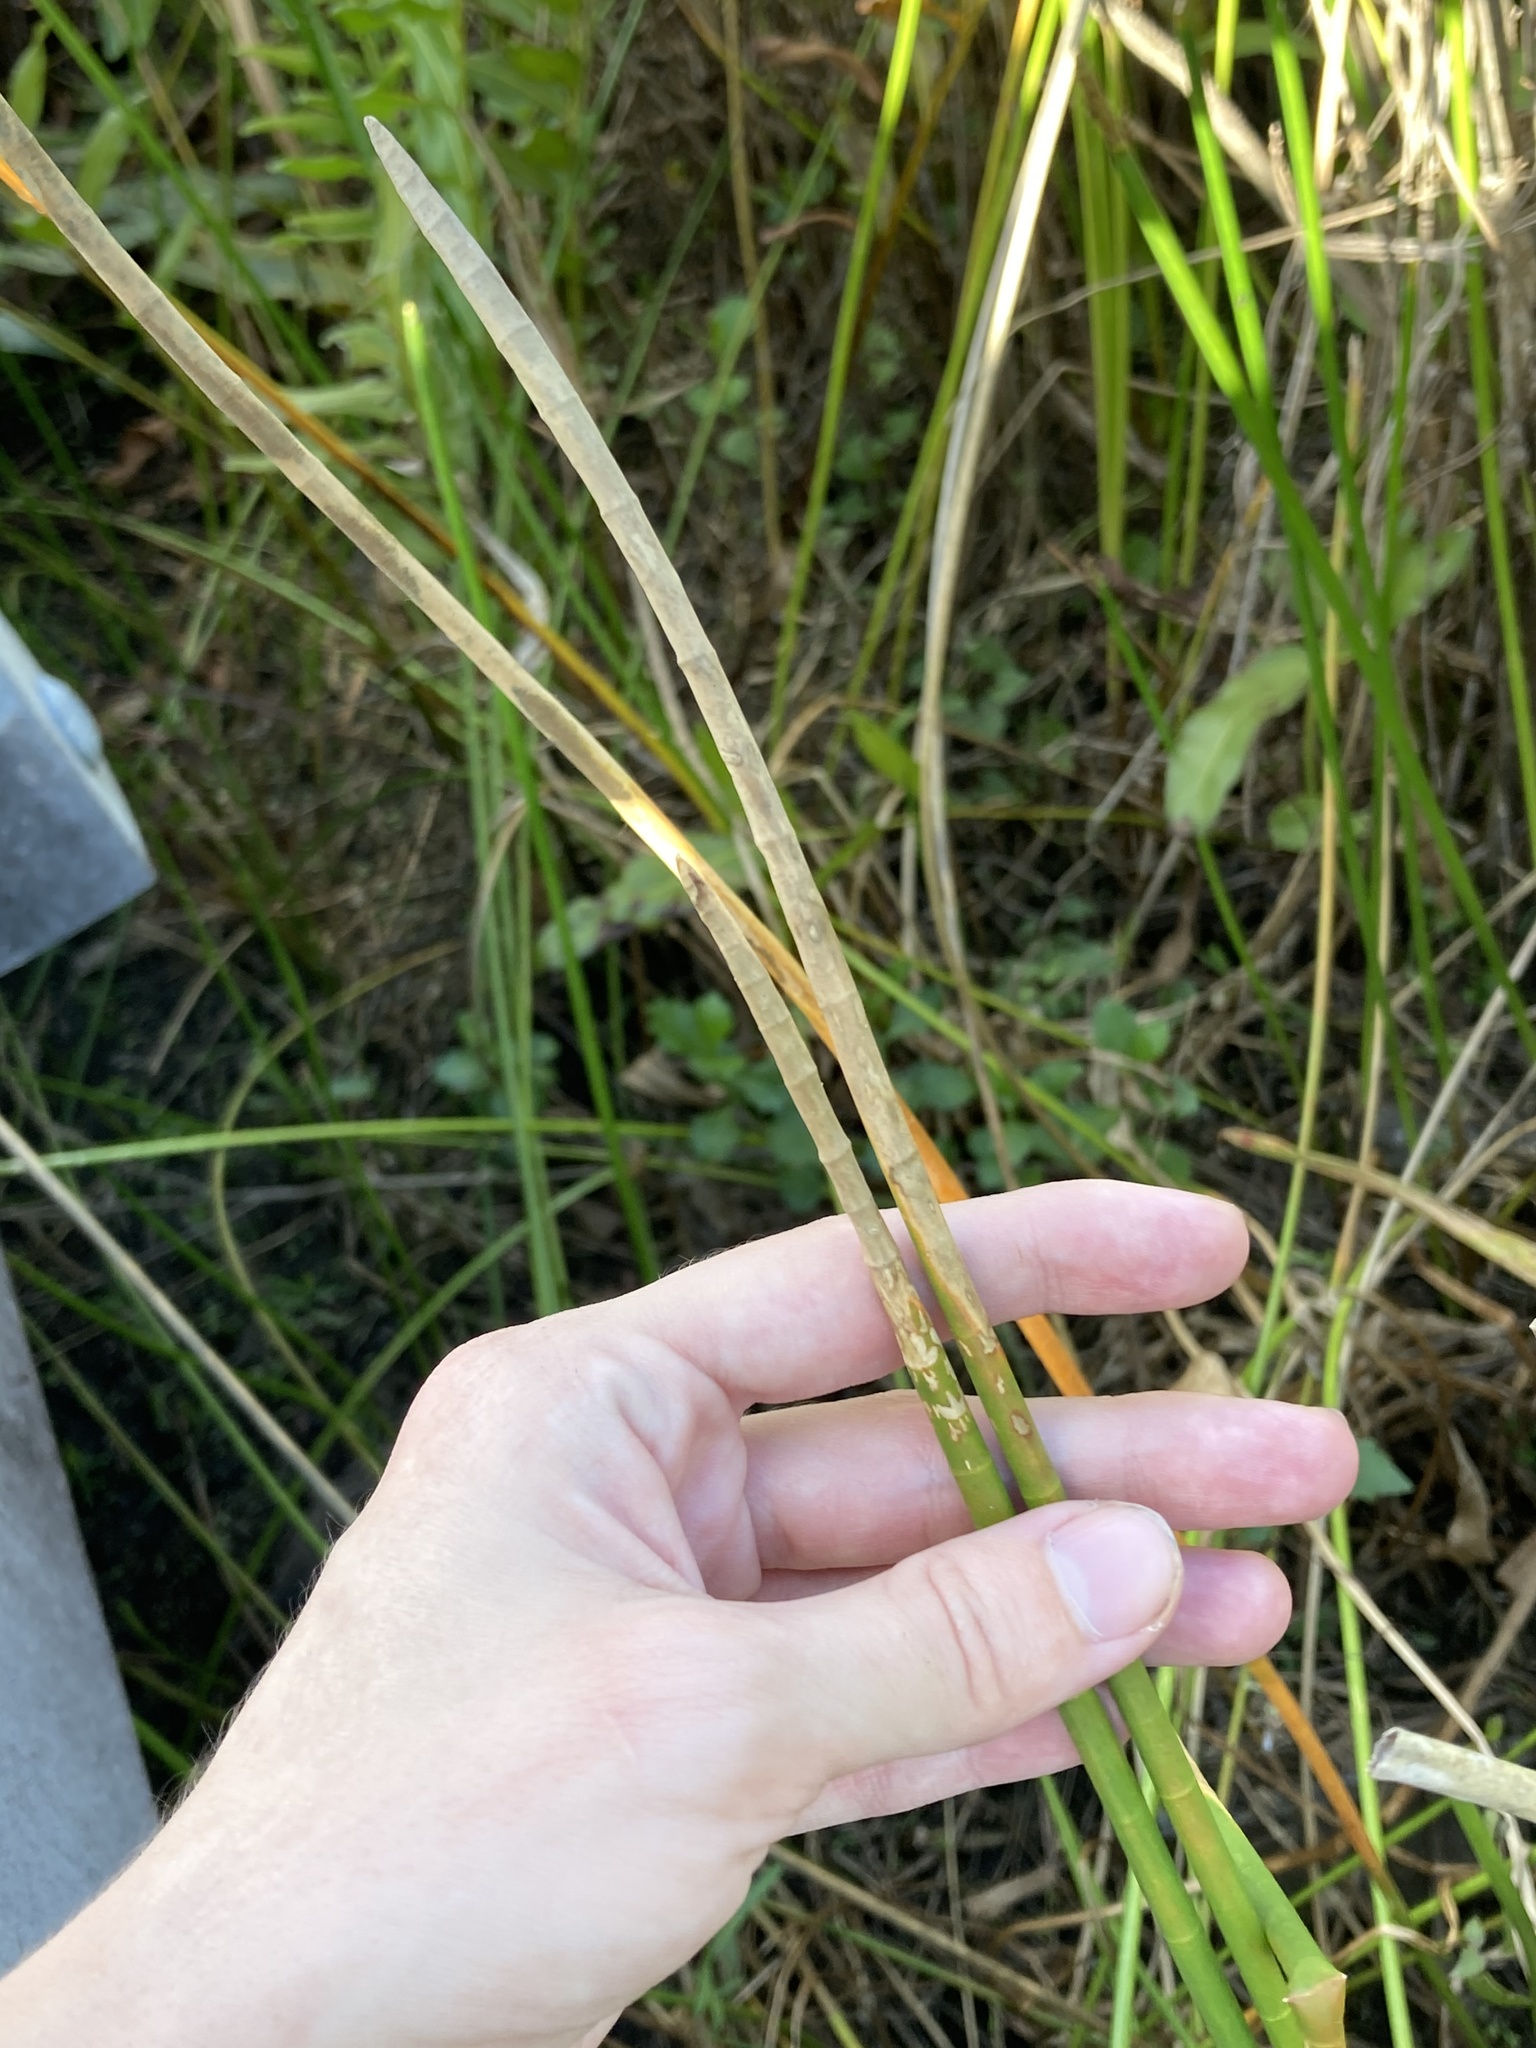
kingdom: Plantae
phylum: Tracheophyta
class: Liliopsida
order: Poales
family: Cyperaceae
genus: Eleocharis
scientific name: Eleocharis interstincta
